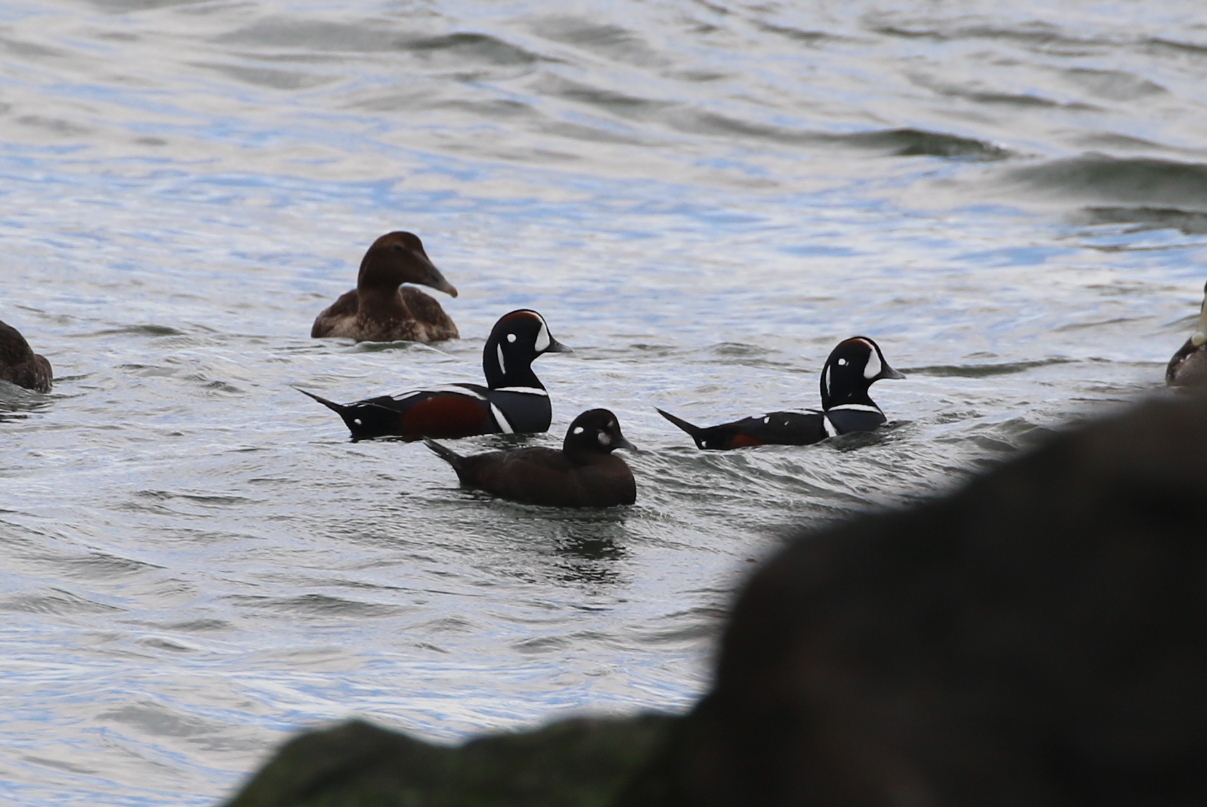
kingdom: Animalia
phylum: Chordata
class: Aves
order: Anseriformes
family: Anatidae
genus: Histrionicus
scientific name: Histrionicus histrionicus
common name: Harlequin duck
